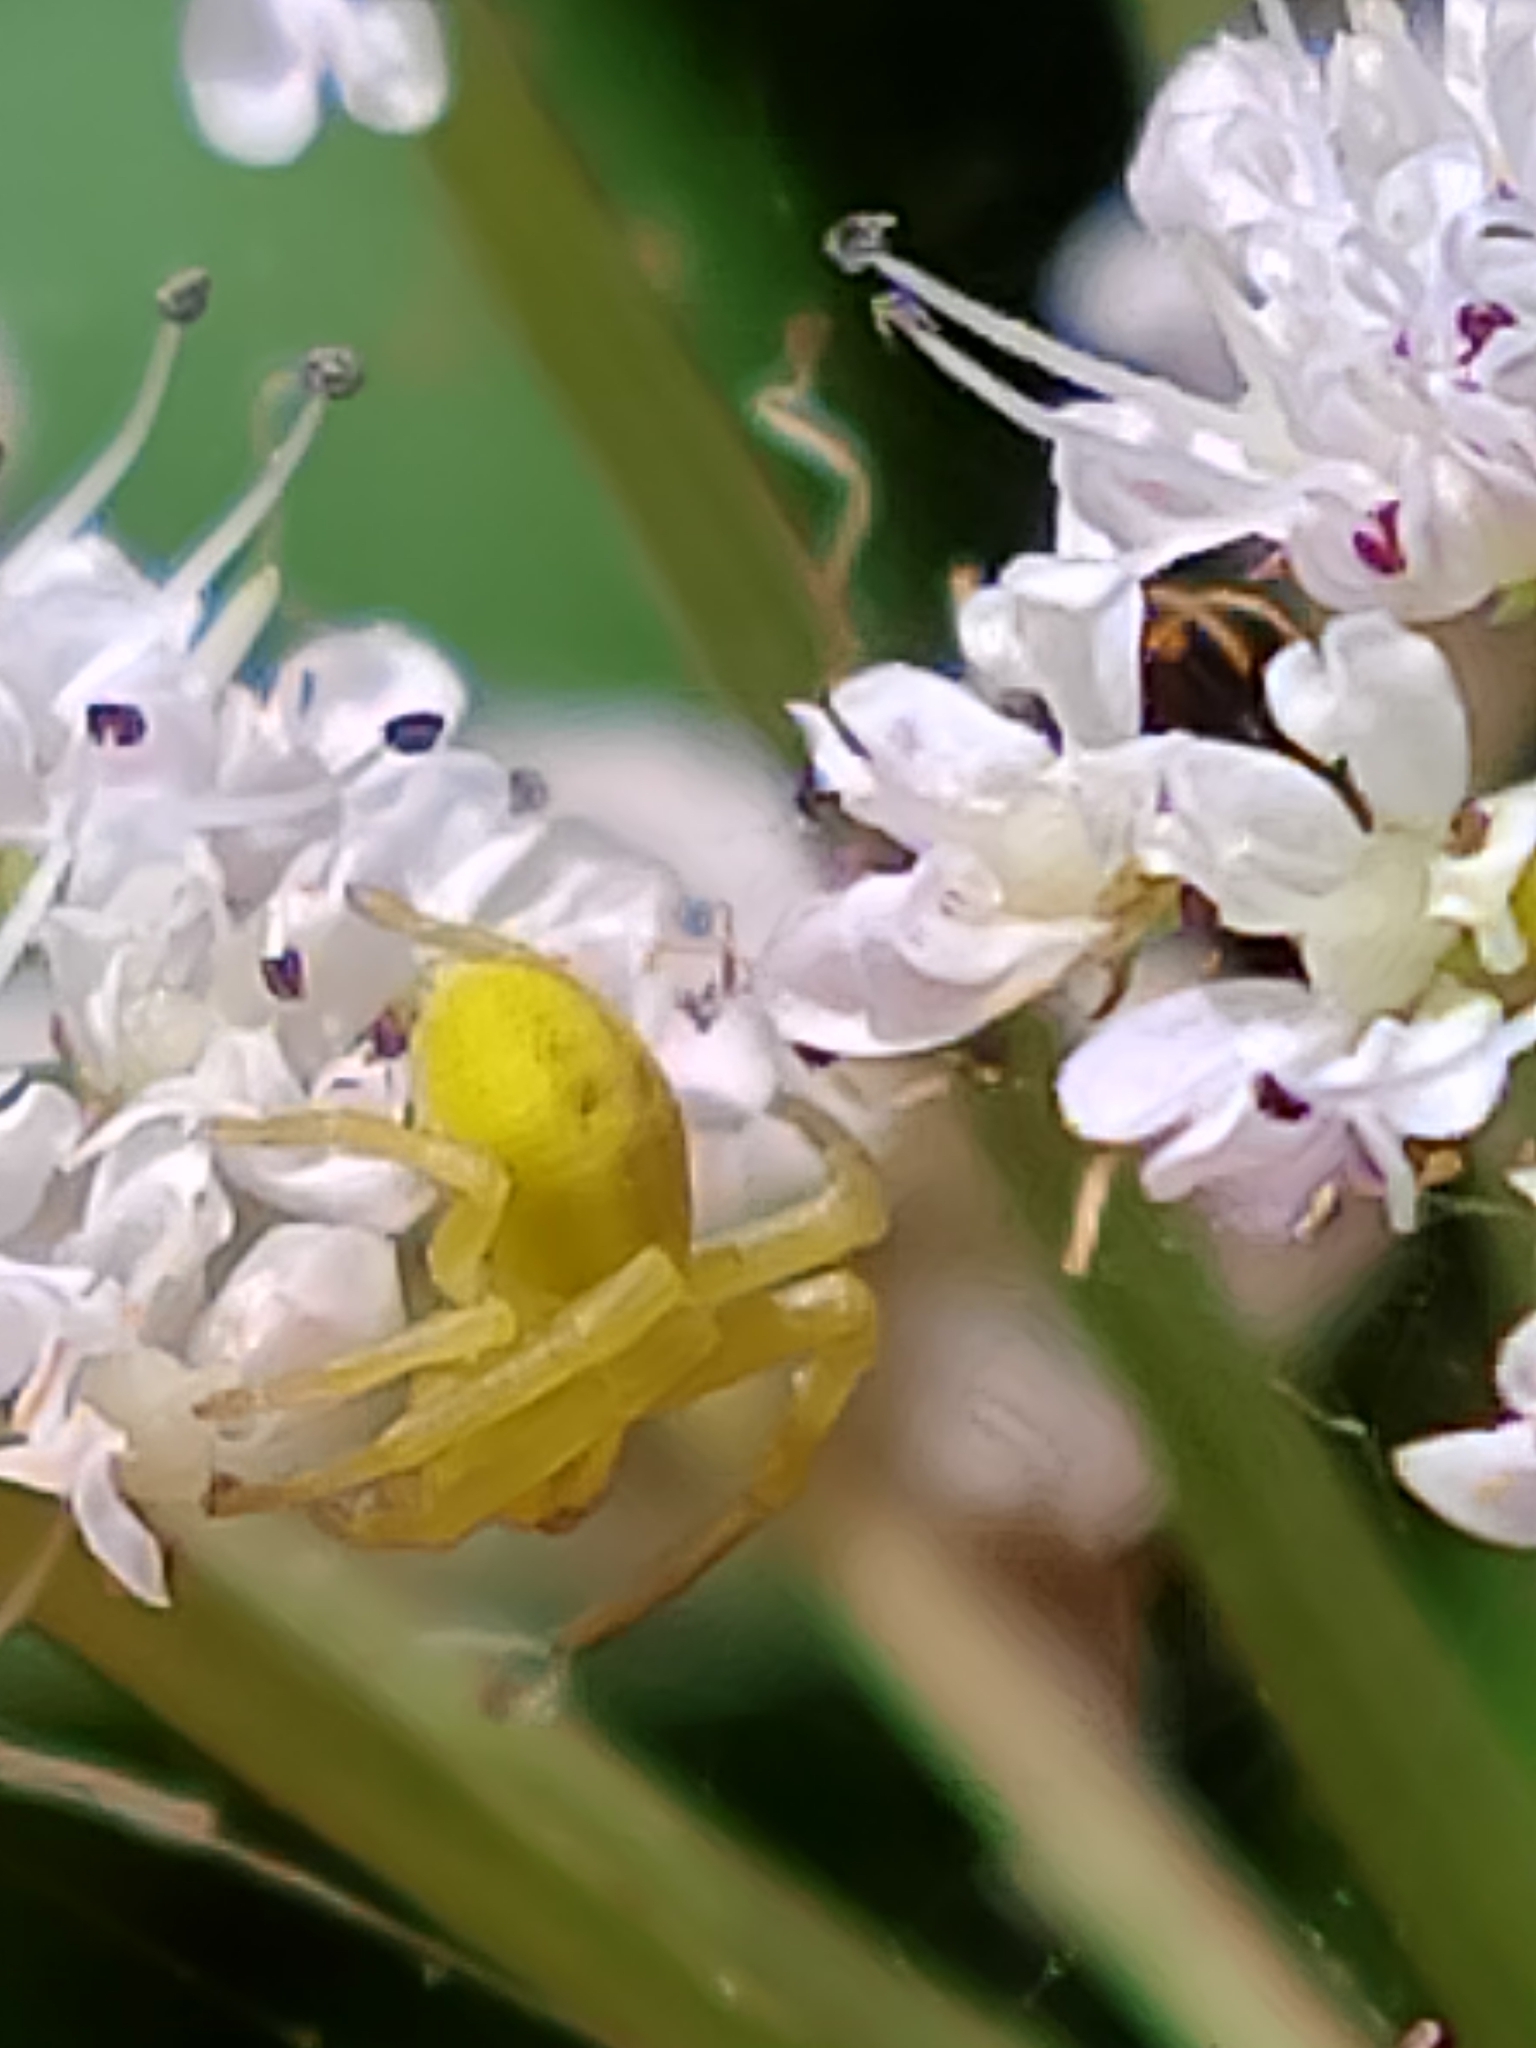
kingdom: Animalia
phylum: Arthropoda
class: Arachnida
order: Araneae
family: Thomisidae
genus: Misumena
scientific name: Misumena vatia
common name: Goldenrod crab spider
